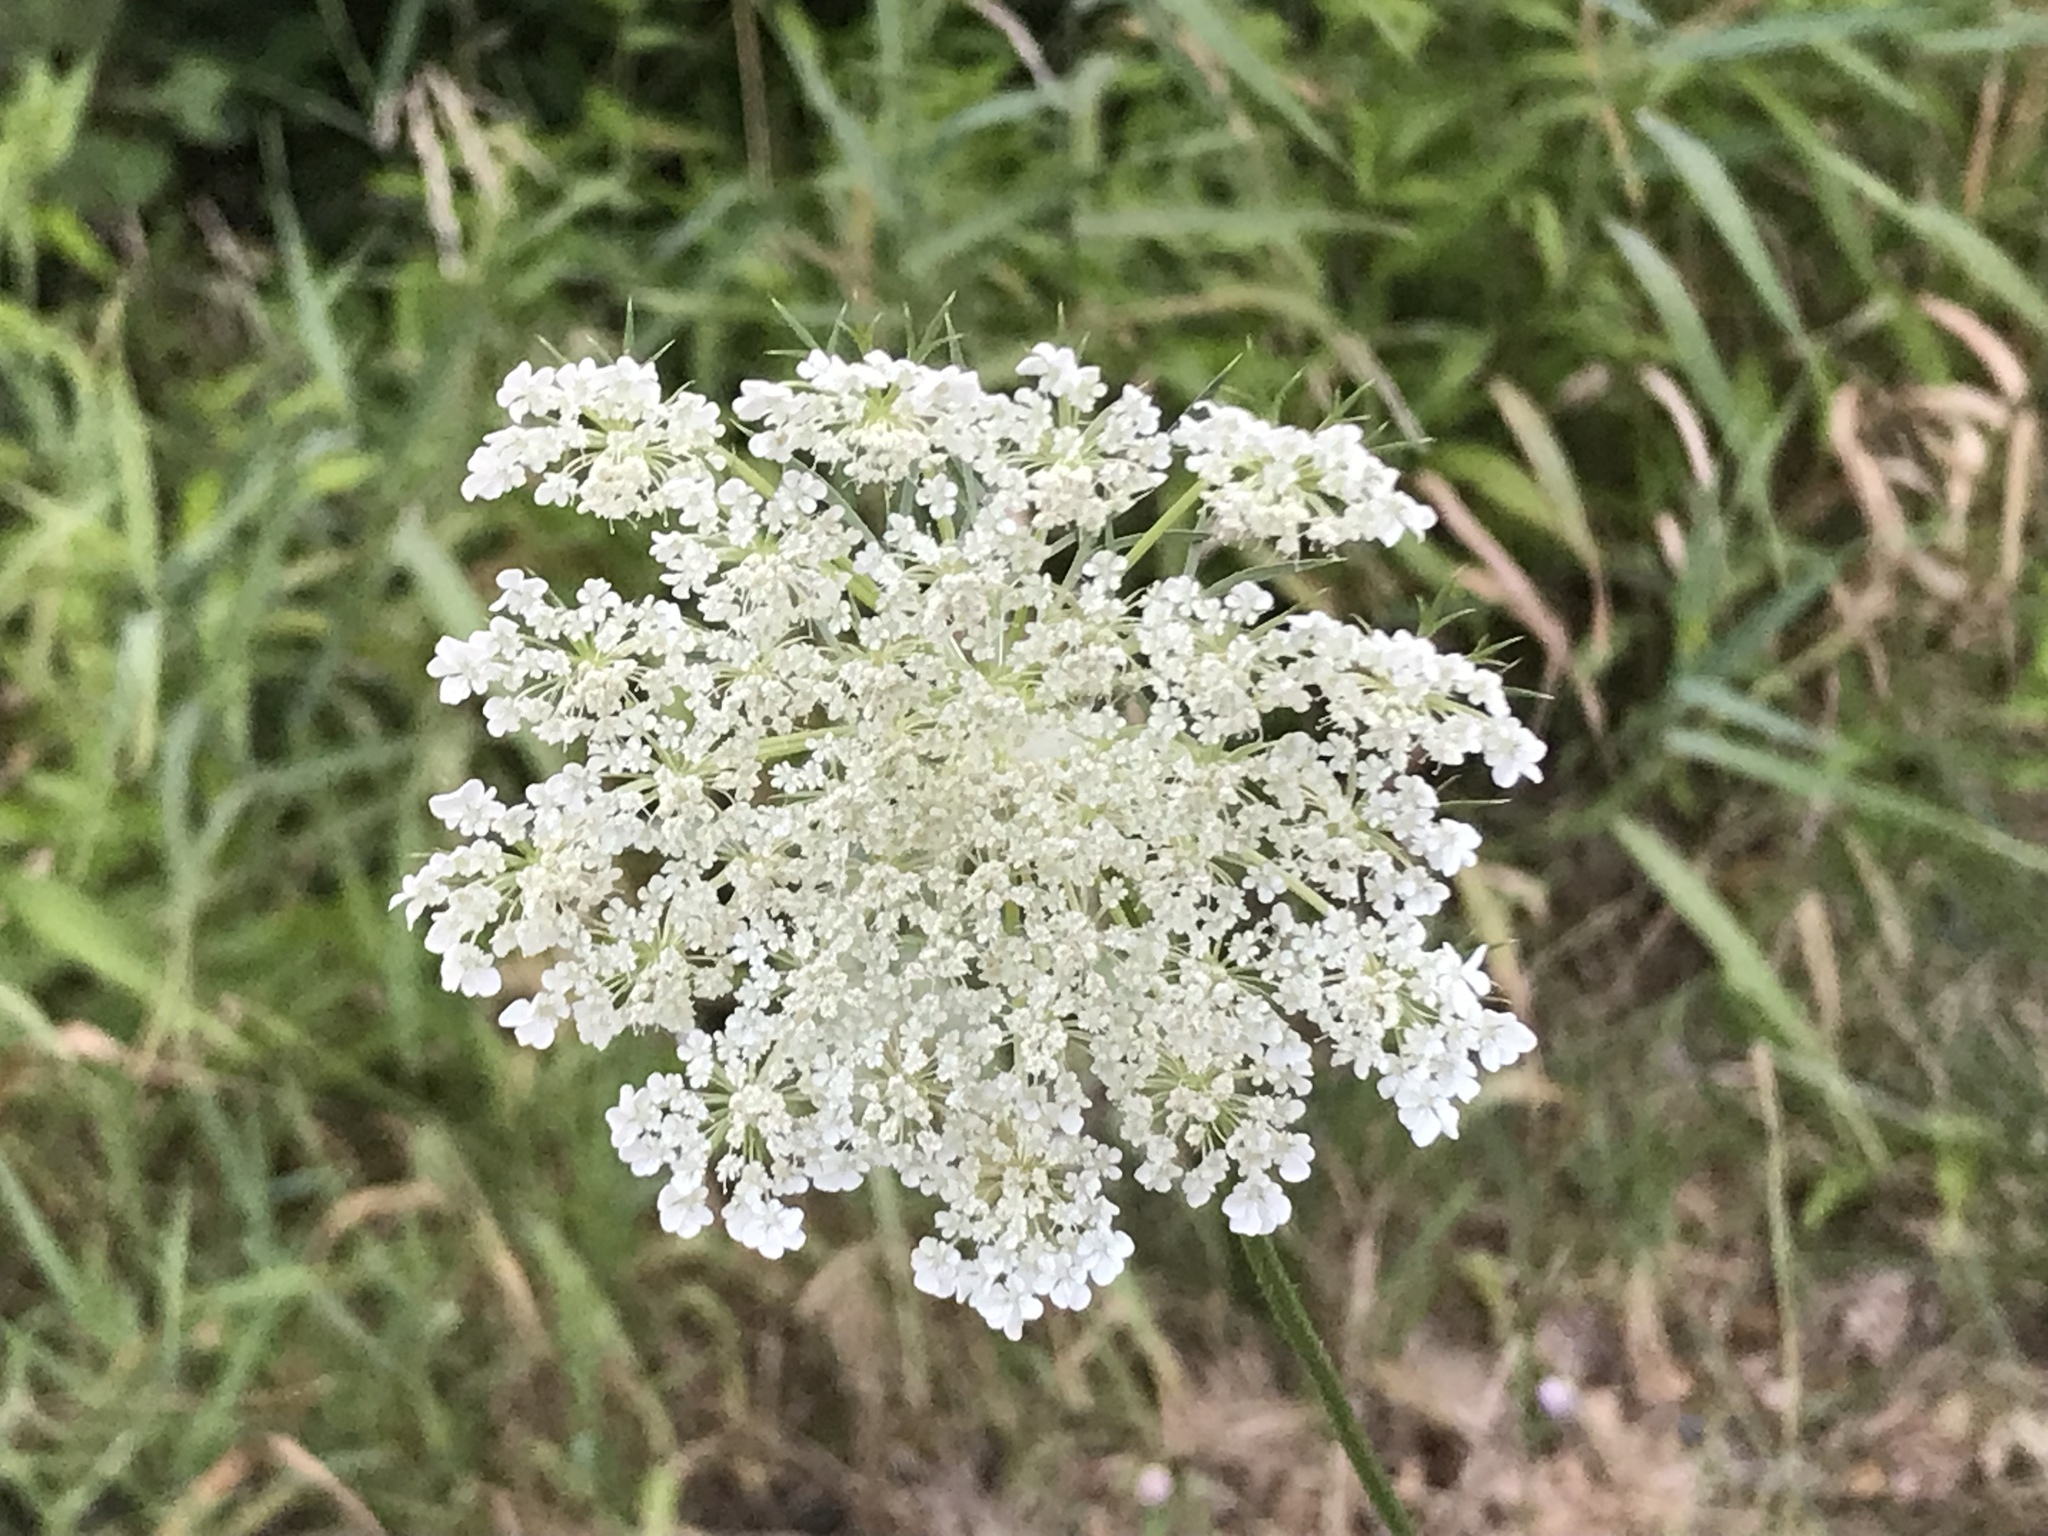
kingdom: Plantae
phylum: Tracheophyta
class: Magnoliopsida
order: Apiales
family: Apiaceae
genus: Daucus
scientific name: Daucus carota
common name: Wild carrot
